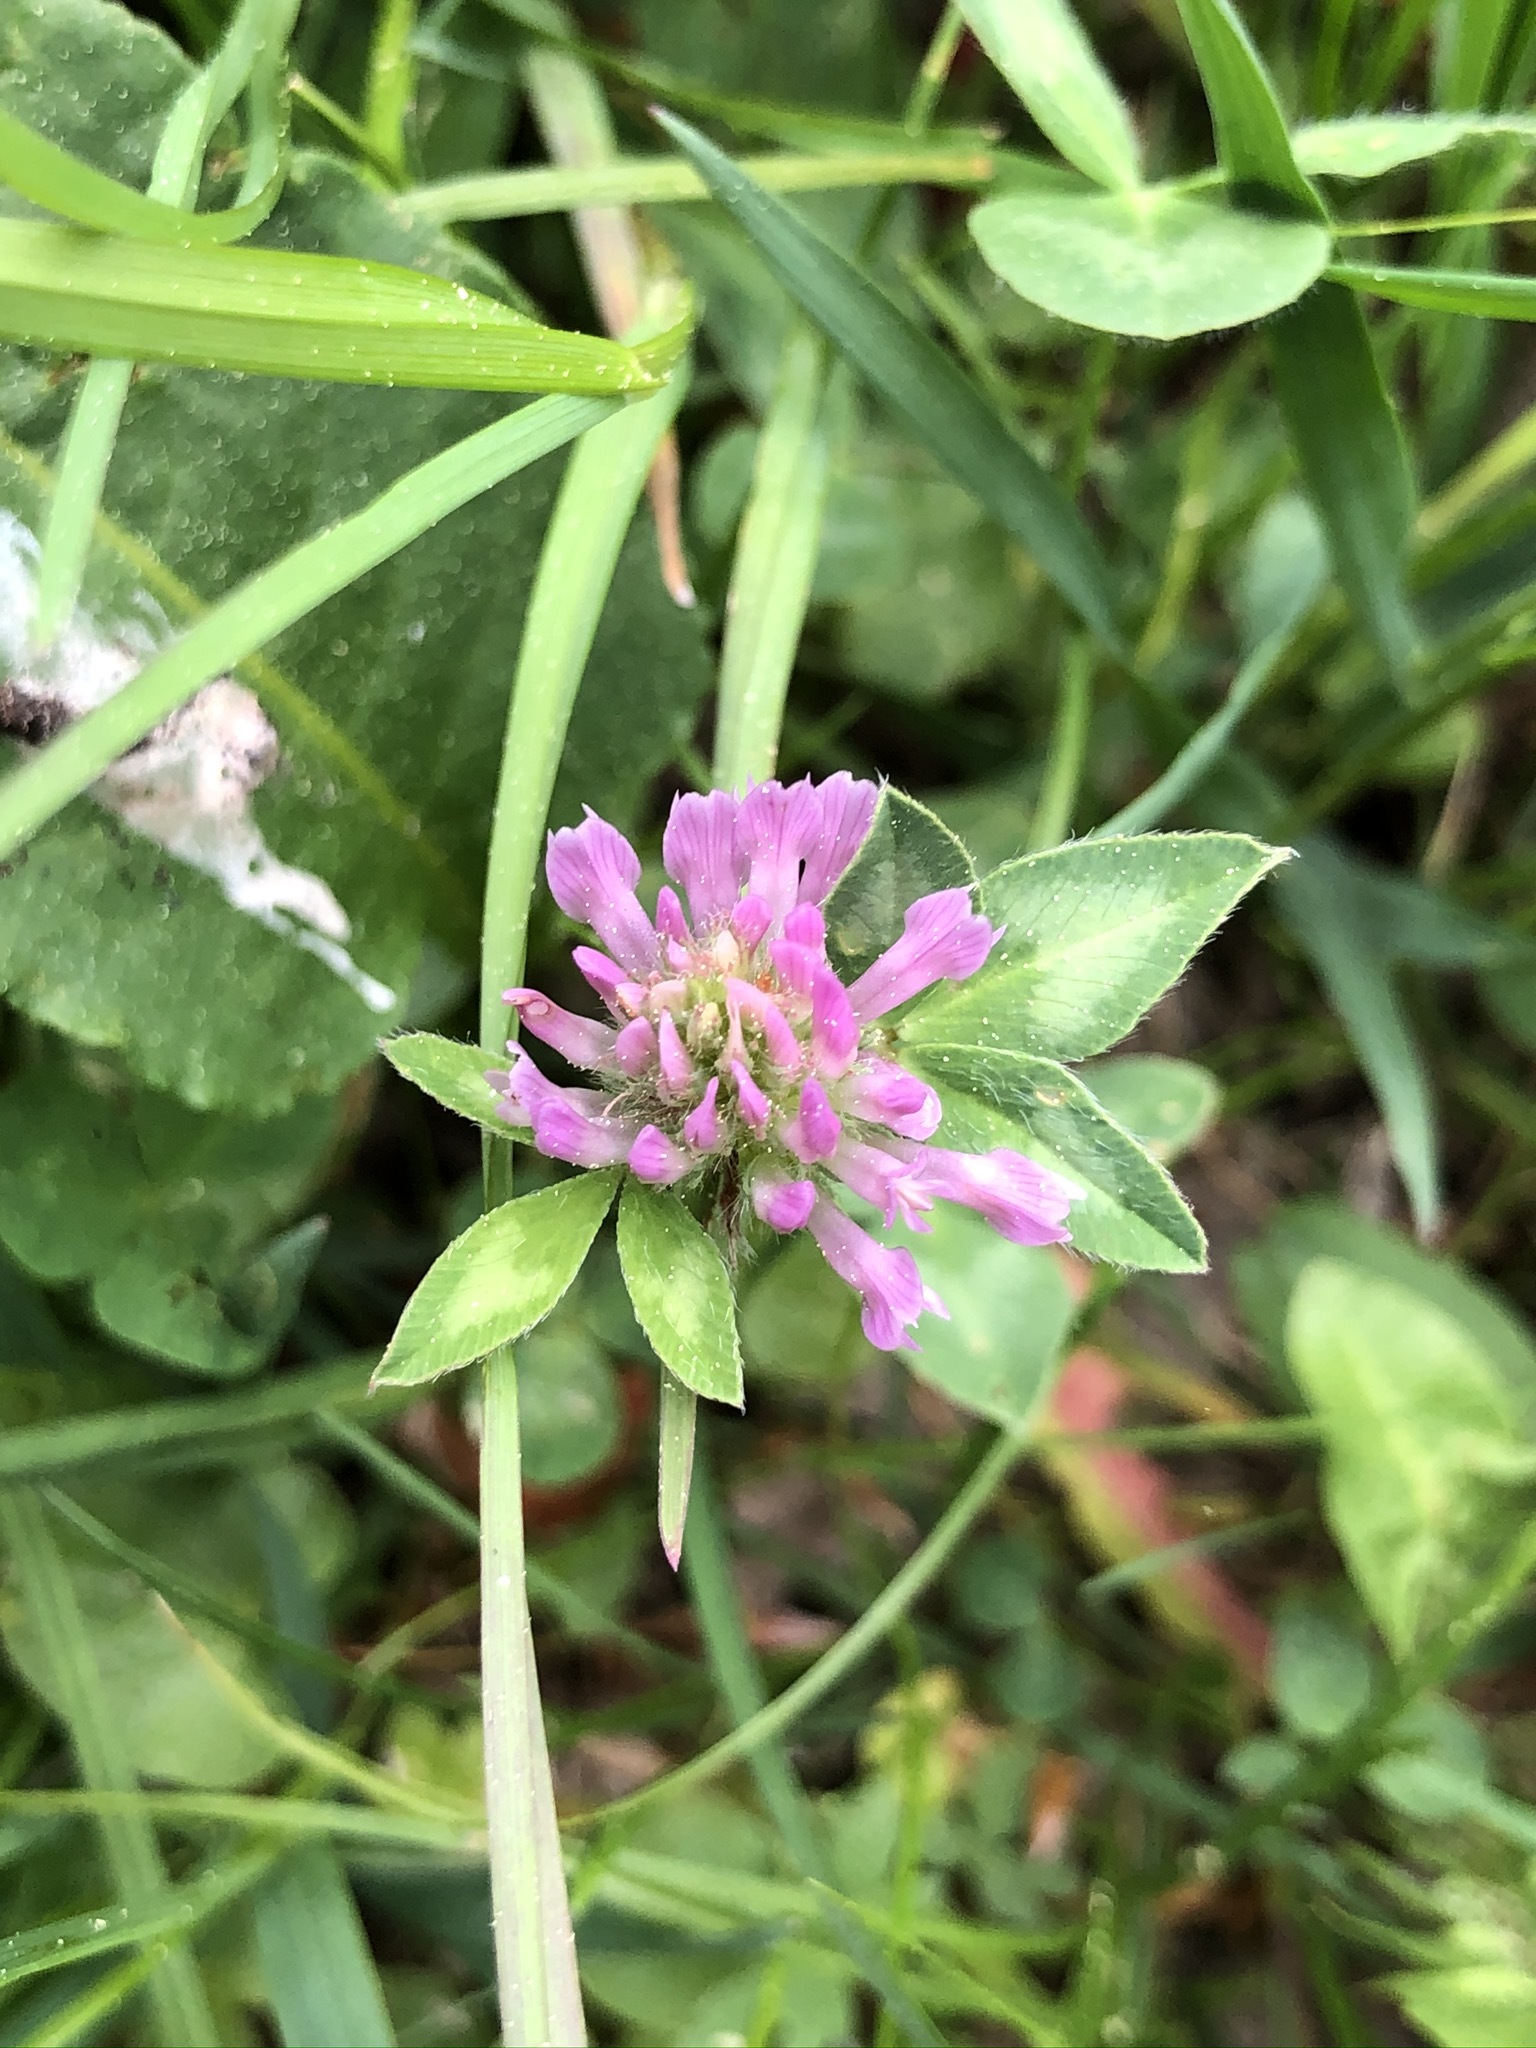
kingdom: Plantae
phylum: Tracheophyta
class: Magnoliopsida
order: Fabales
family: Fabaceae
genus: Trifolium
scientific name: Trifolium pratense
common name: Red clover
